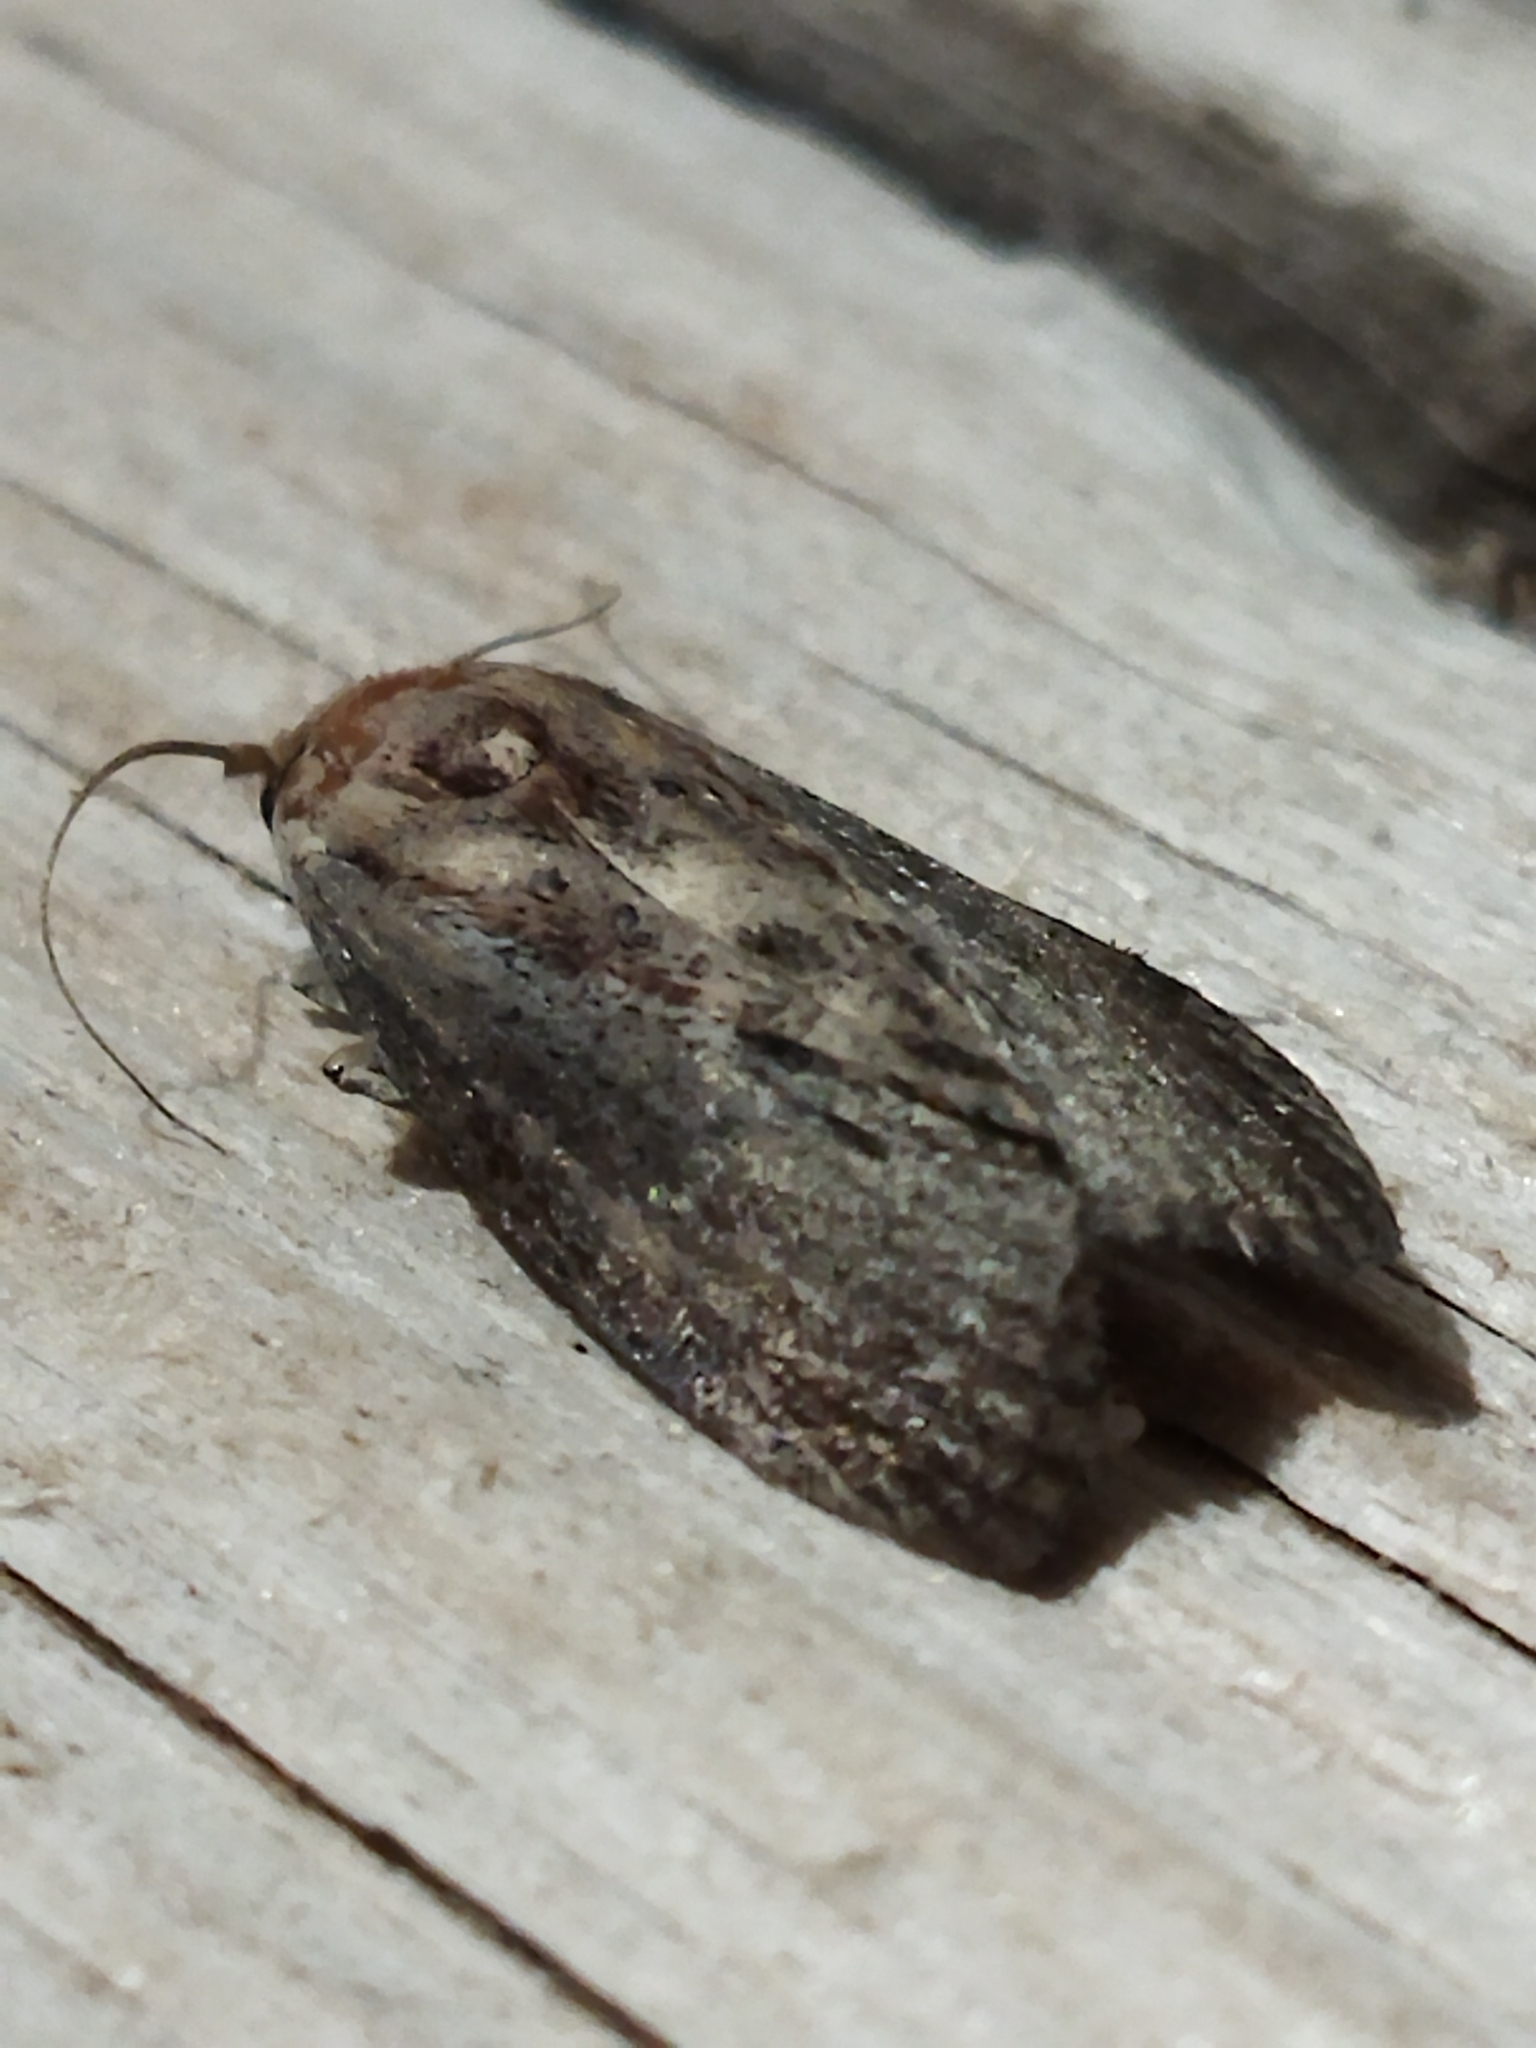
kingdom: Animalia
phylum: Arthropoda
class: Insecta
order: Lepidoptera
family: Pyralidae
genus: Galleria
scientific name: Galleria mellonella
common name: Greater wax moth
